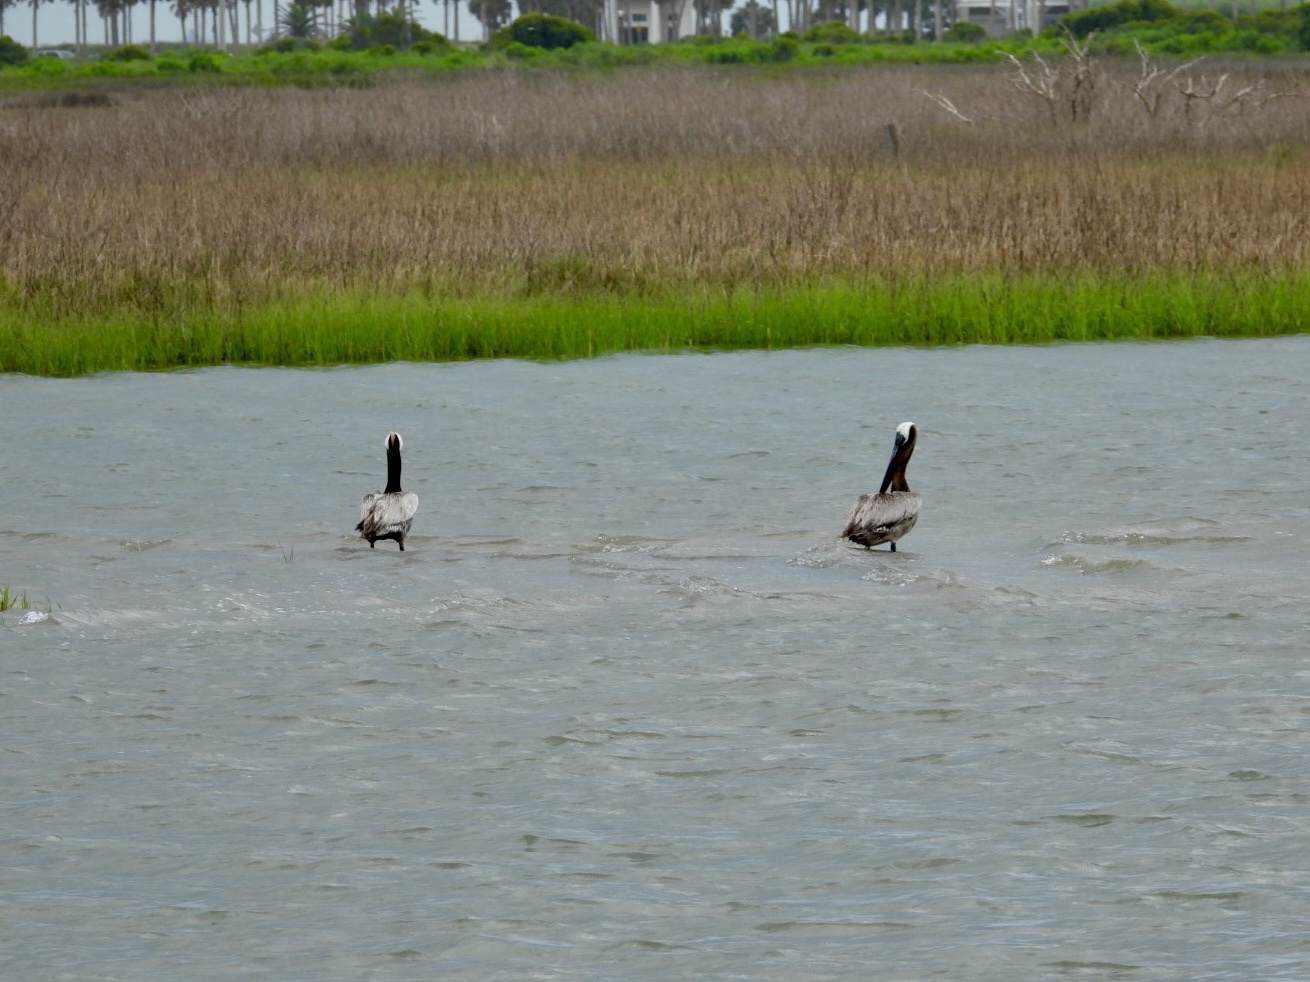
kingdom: Animalia
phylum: Chordata
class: Aves
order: Pelecaniformes
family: Pelecanidae
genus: Pelecanus
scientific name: Pelecanus occidentalis
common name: Brown pelican
